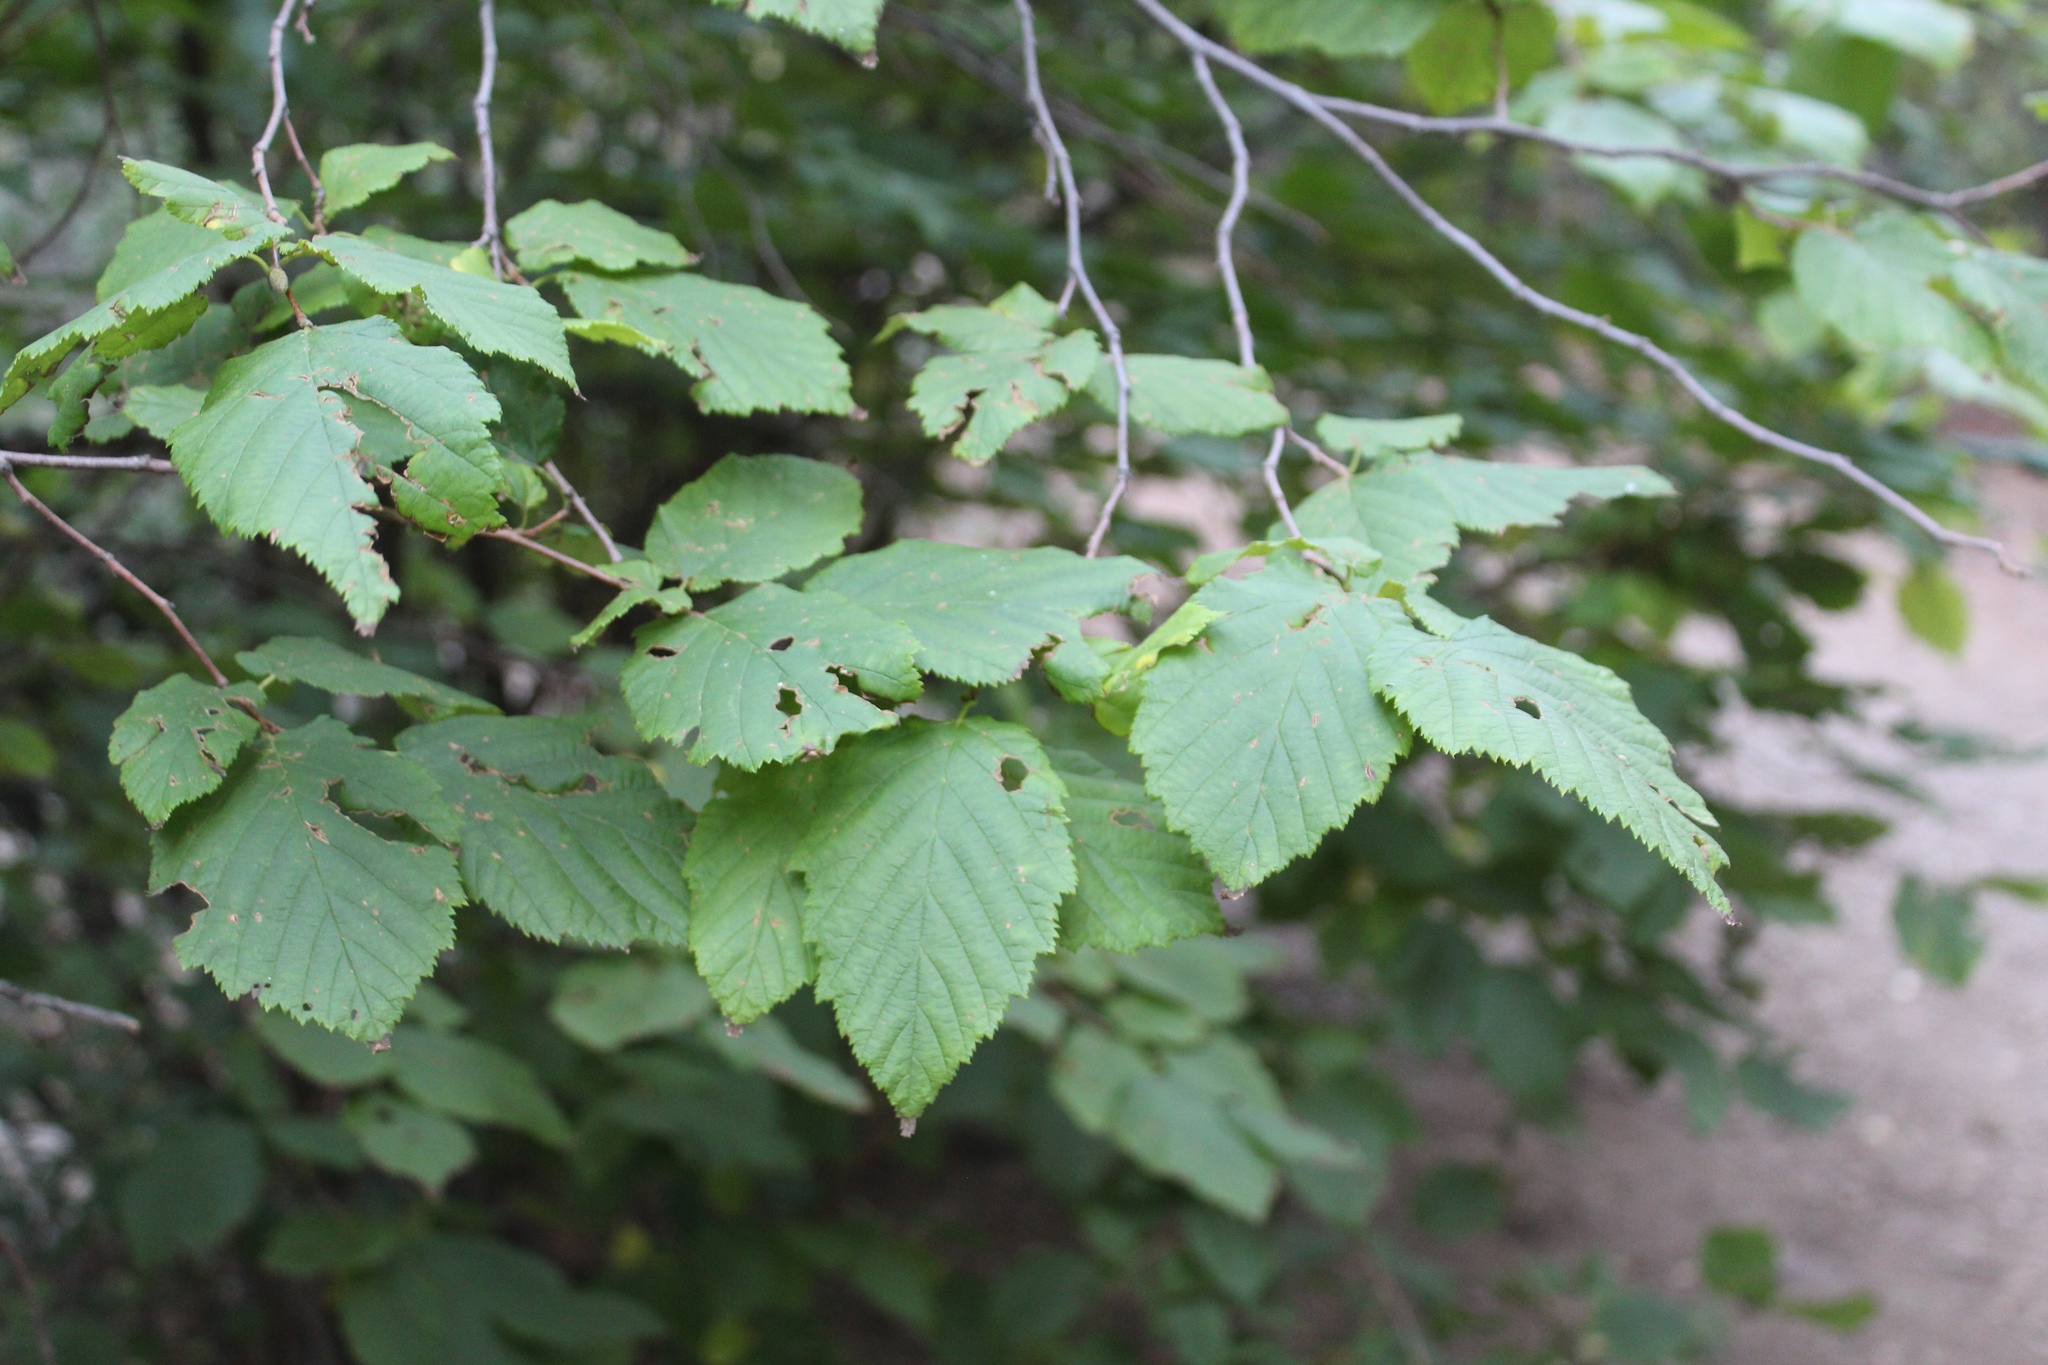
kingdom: Plantae
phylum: Tracheophyta
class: Magnoliopsida
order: Fagales
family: Betulaceae
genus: Corylus
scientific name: Corylus cornuta
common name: Beaked hazel
